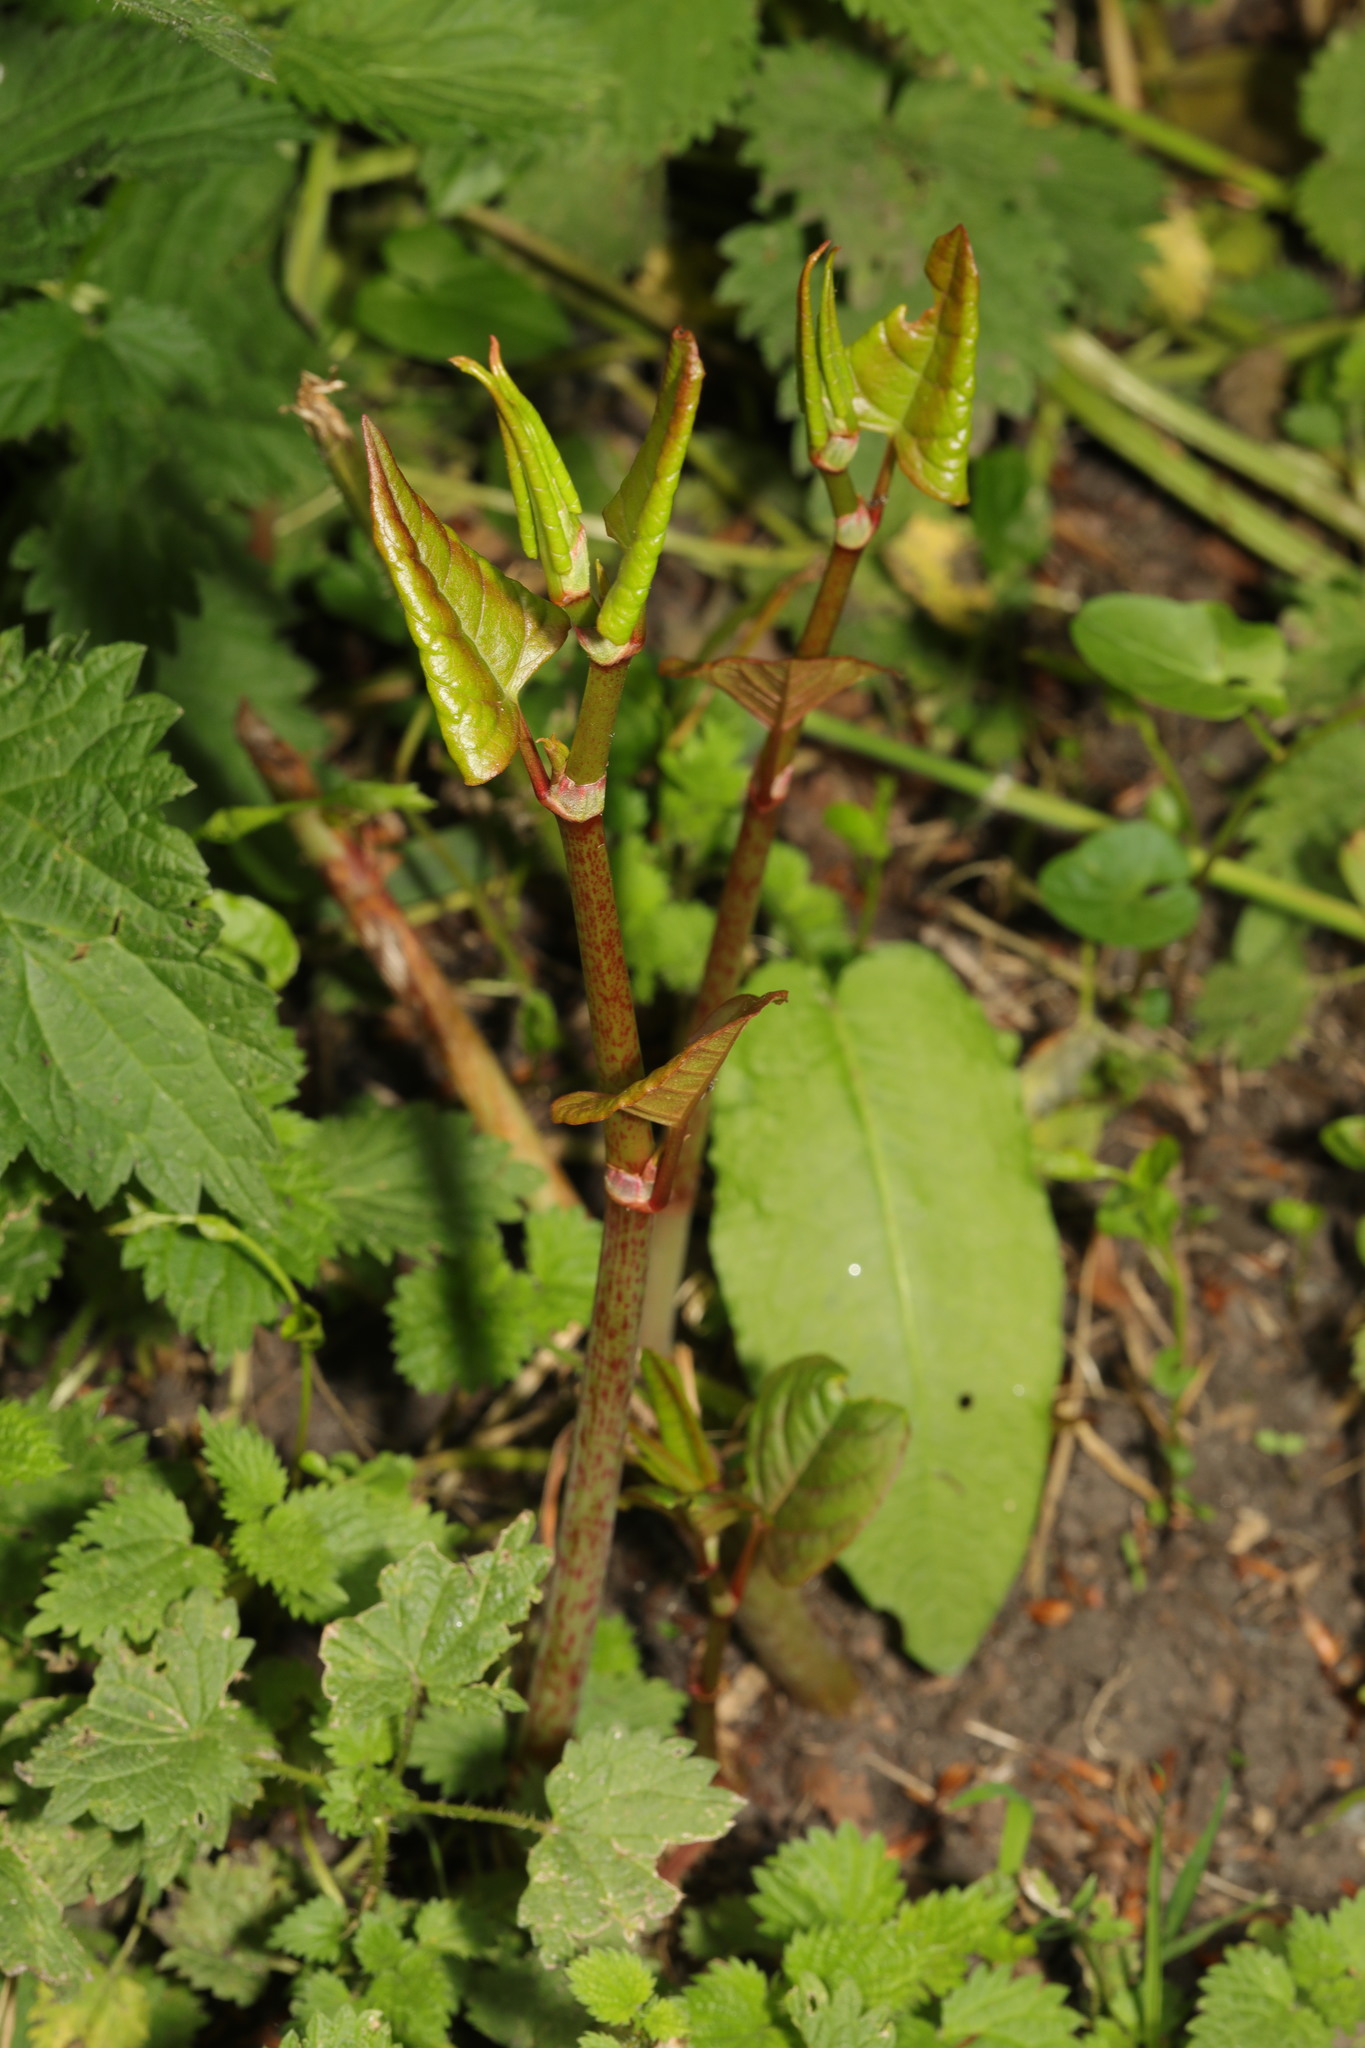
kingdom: Plantae
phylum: Tracheophyta
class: Magnoliopsida
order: Caryophyllales
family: Polygonaceae
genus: Reynoutria
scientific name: Reynoutria japonica
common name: Japanese knotweed
